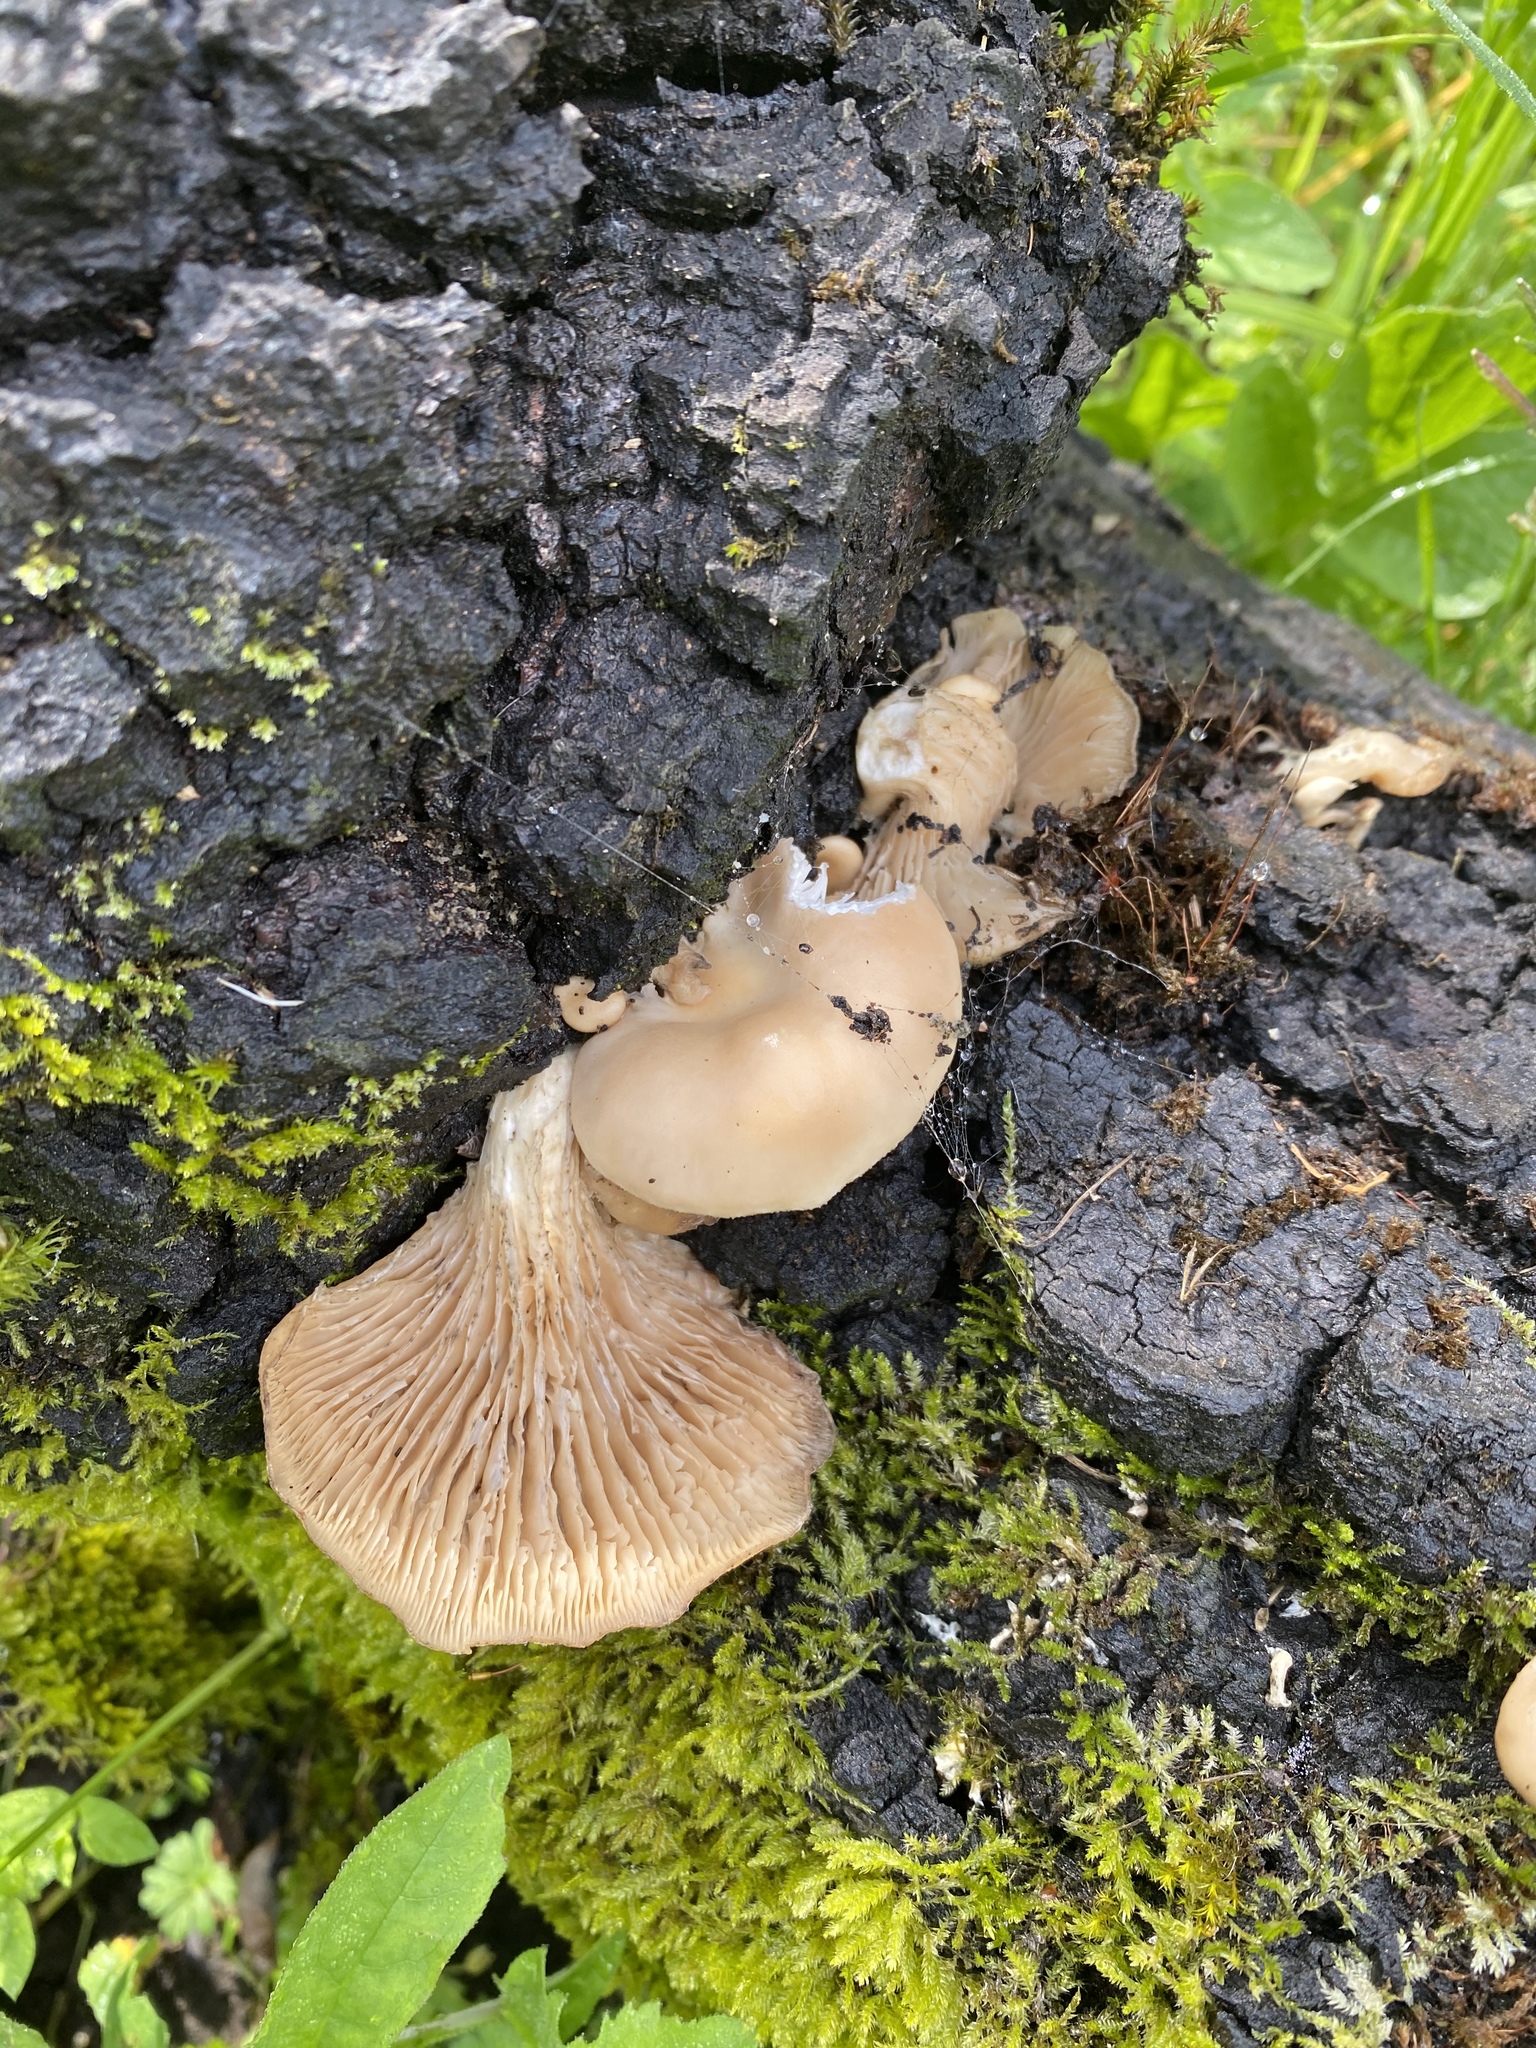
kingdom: Fungi
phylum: Basidiomycota
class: Agaricomycetes
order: Agaricales
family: Pleurotaceae
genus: Pleurotus
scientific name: Pleurotus pulmonarius
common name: Pale oyster
